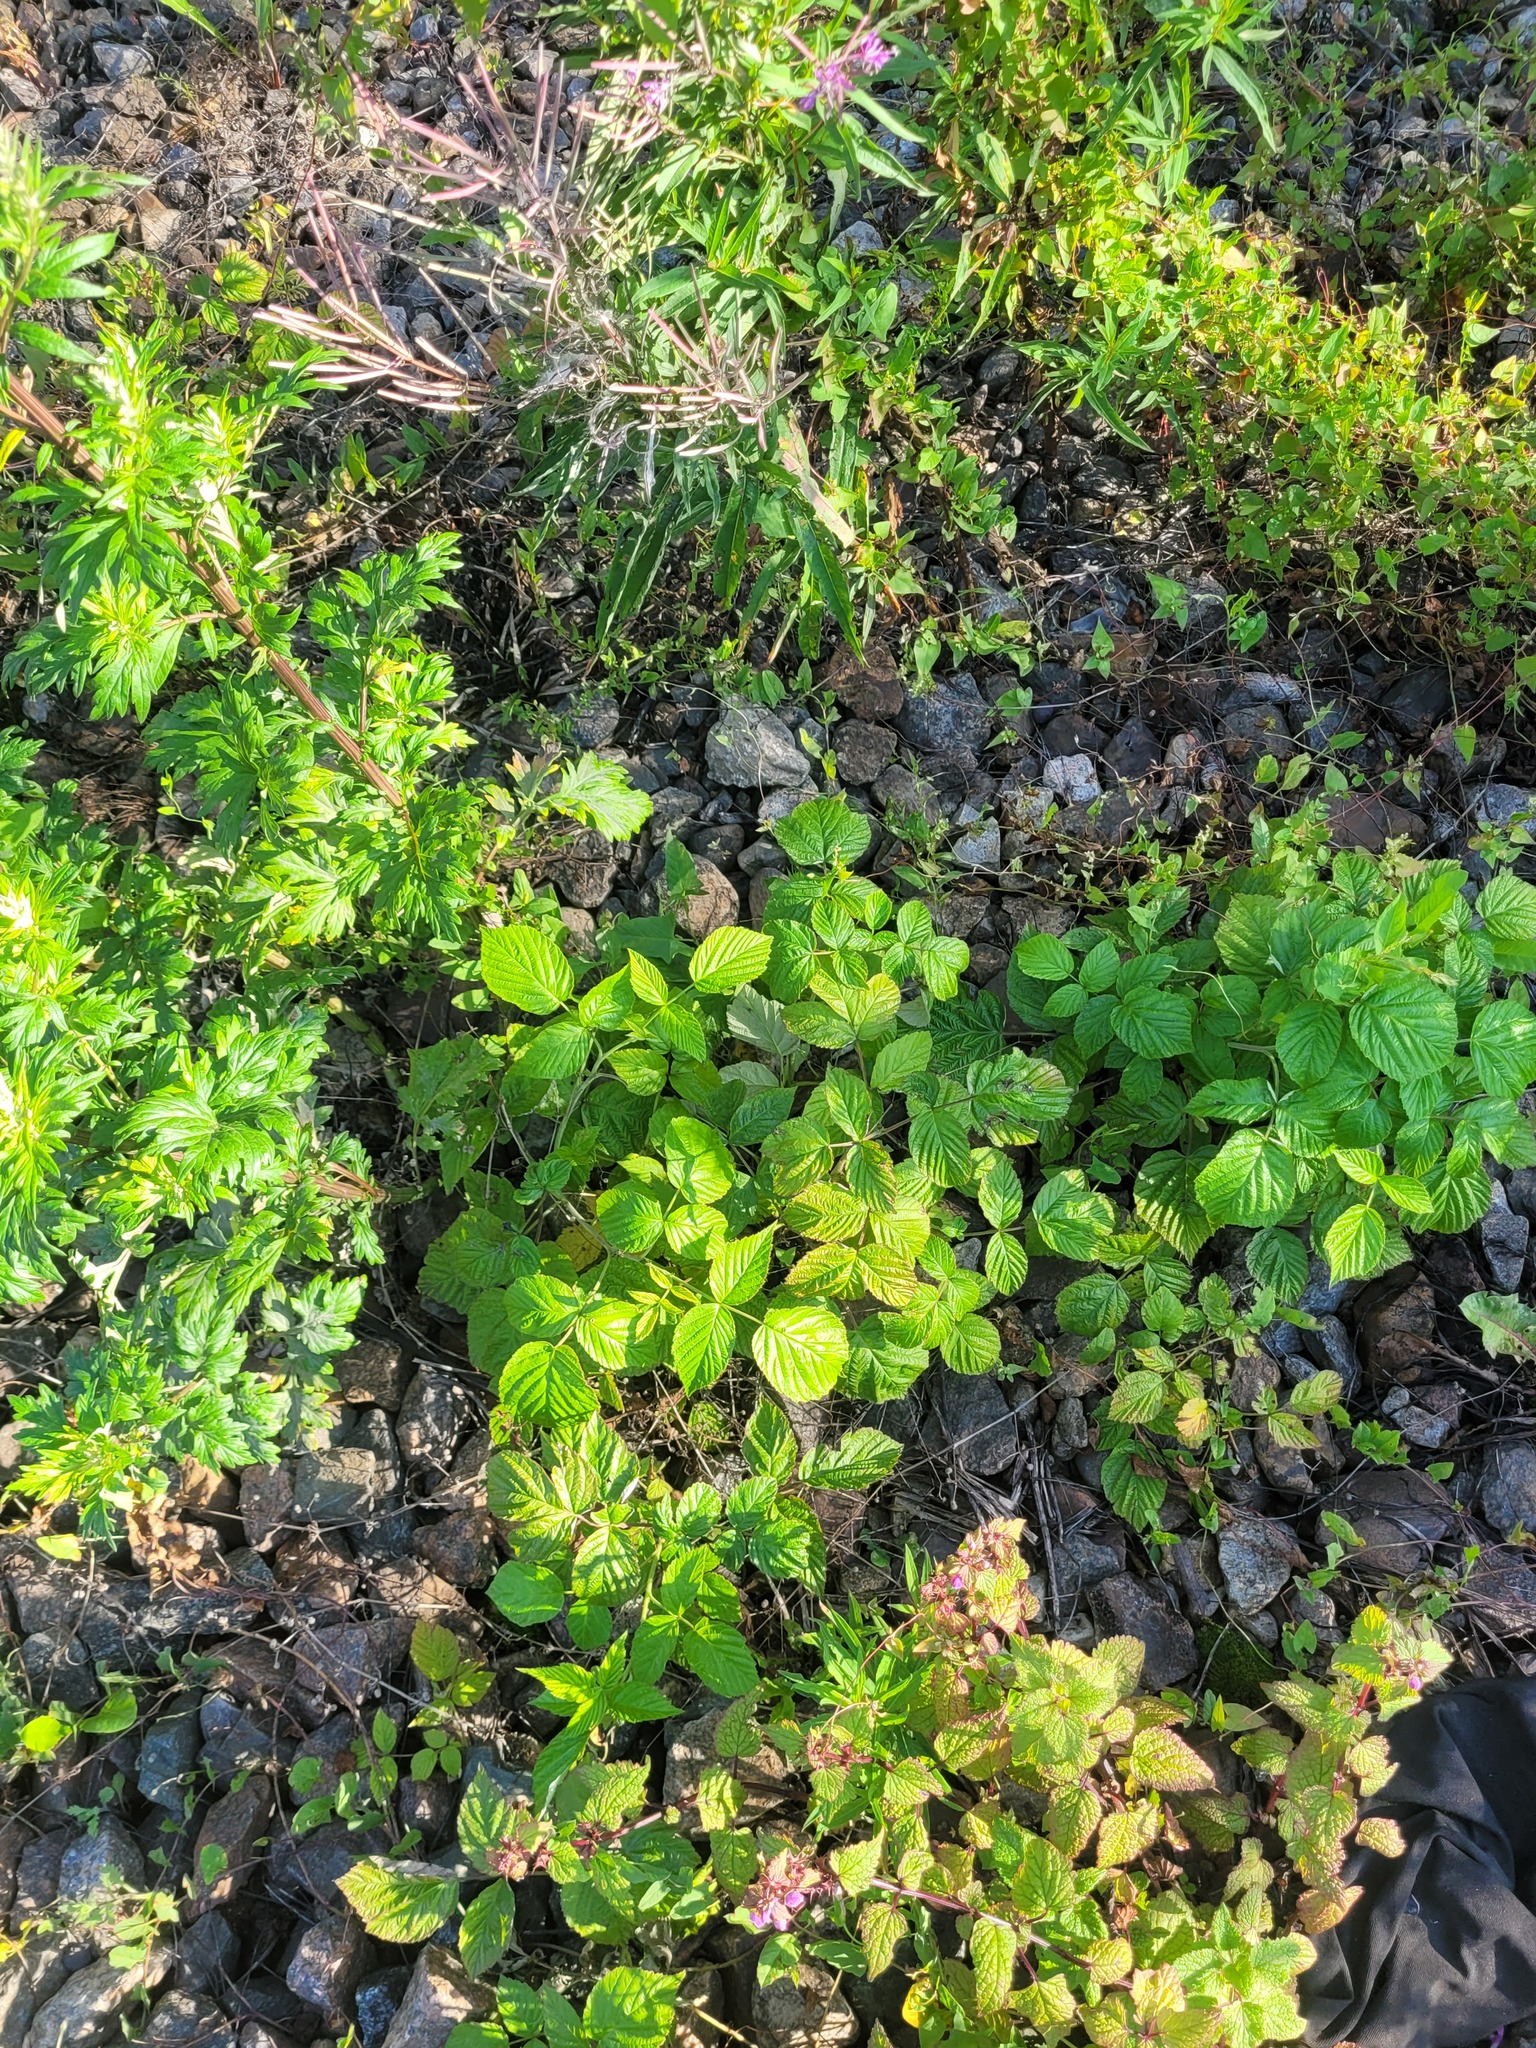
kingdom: Plantae
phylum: Tracheophyta
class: Magnoliopsida
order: Rosales
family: Rosaceae
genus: Rubus
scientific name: Rubus idaeus
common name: Raspberry
